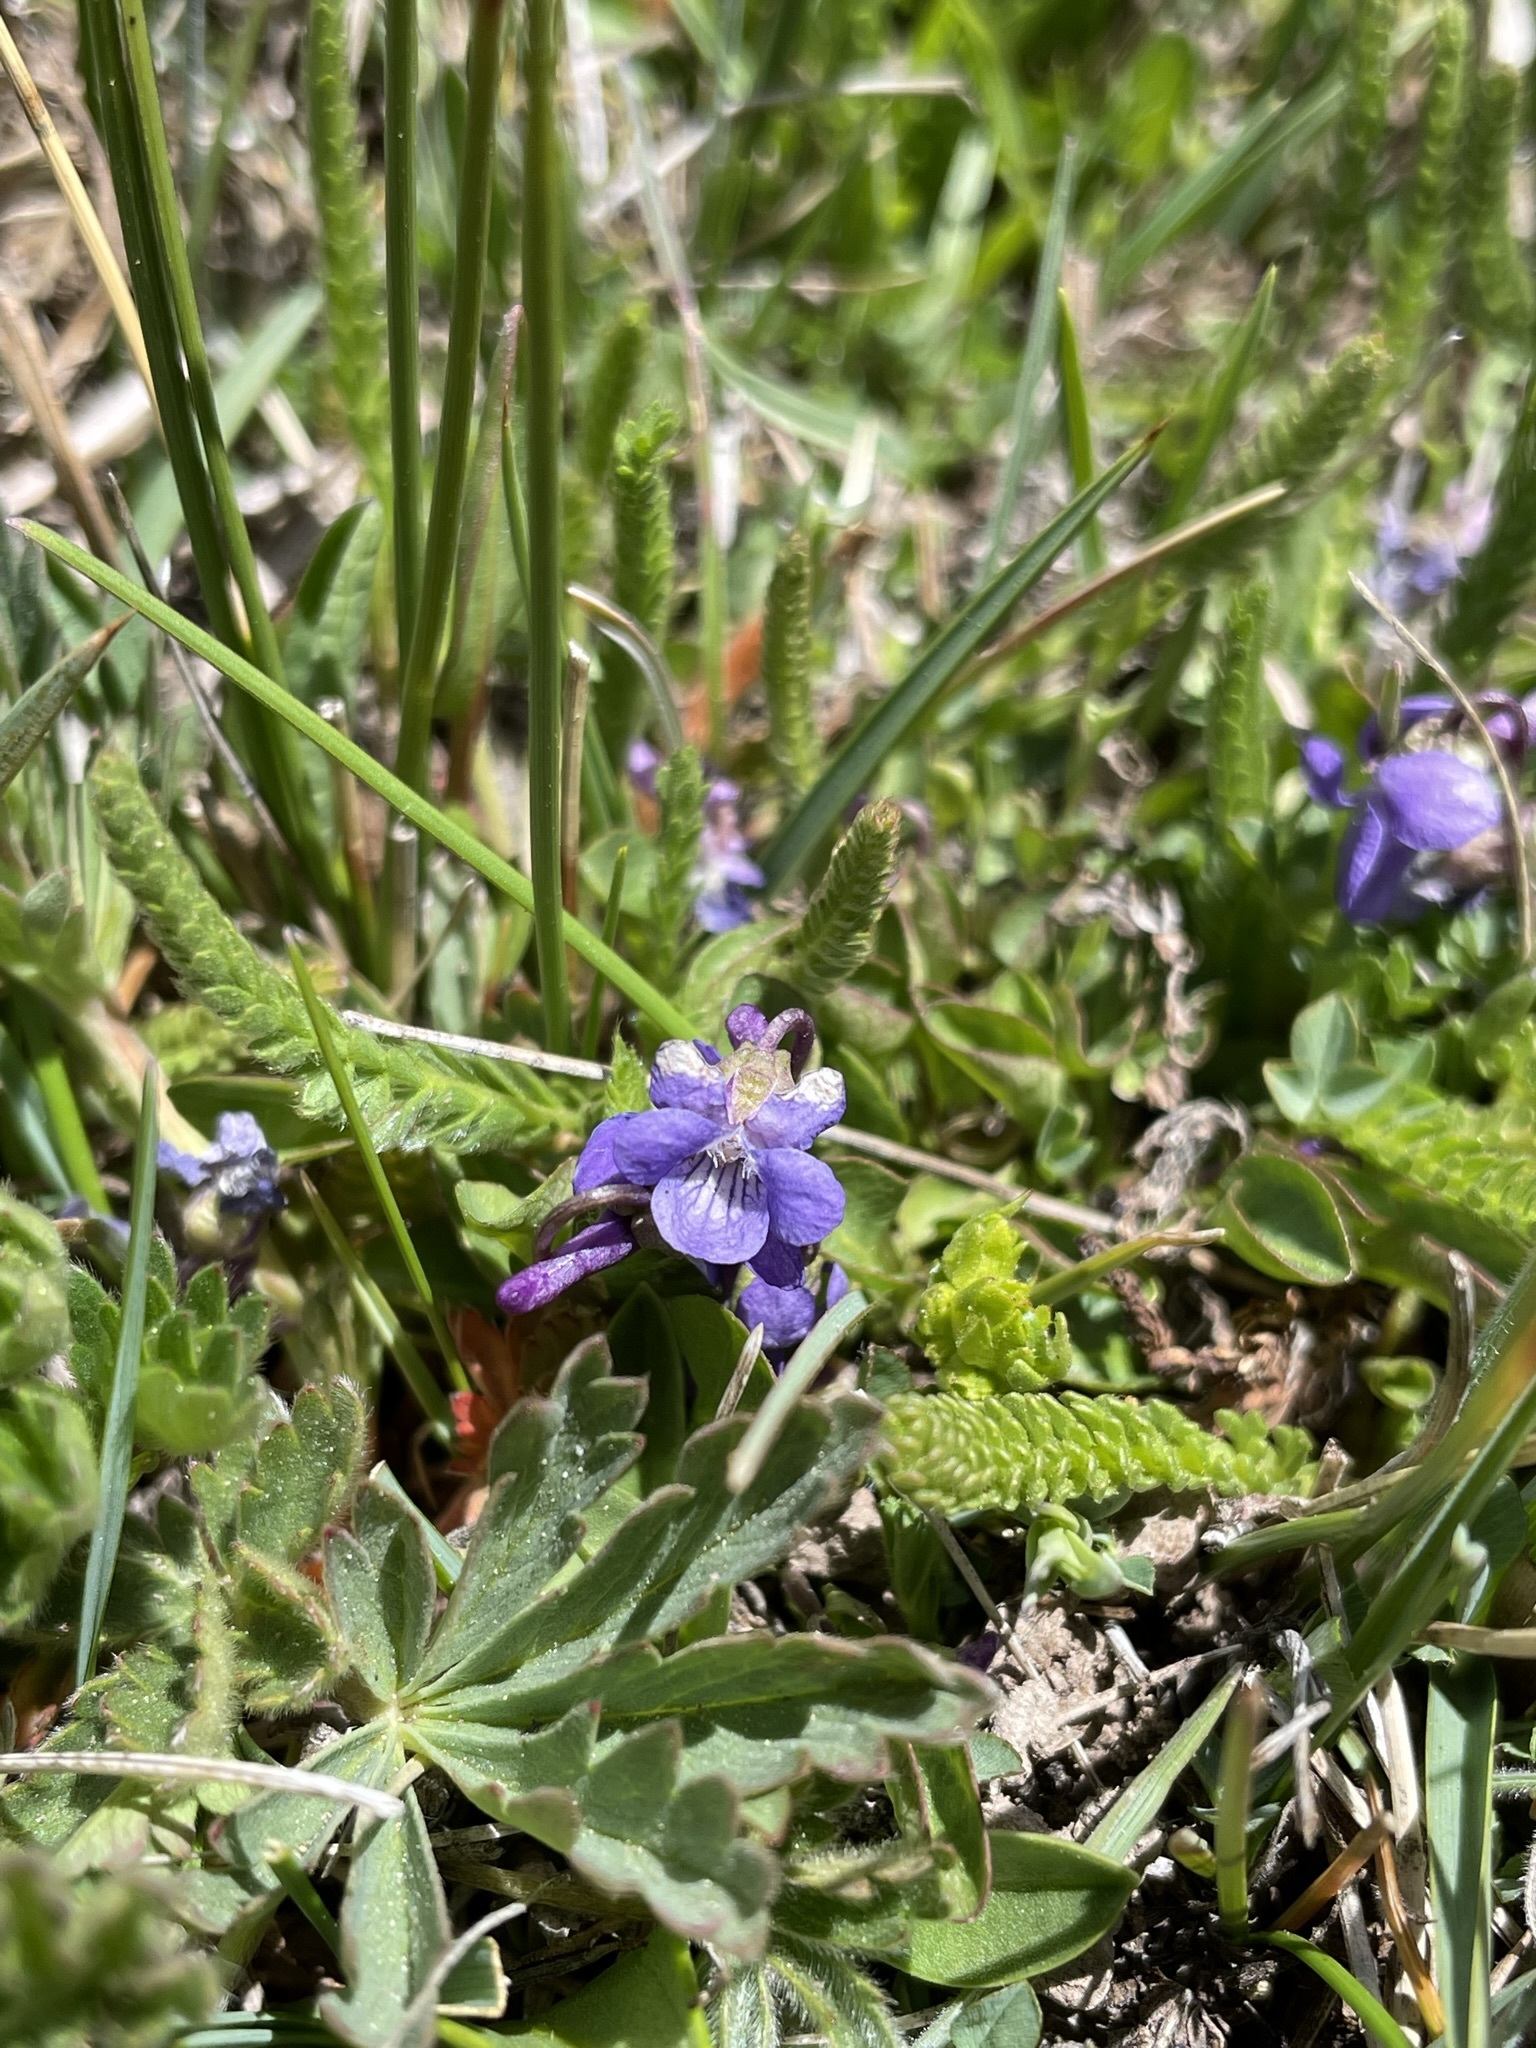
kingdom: Plantae
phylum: Tracheophyta
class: Magnoliopsida
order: Malpighiales
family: Violaceae
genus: Viola
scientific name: Viola adunca
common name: Sand violet
